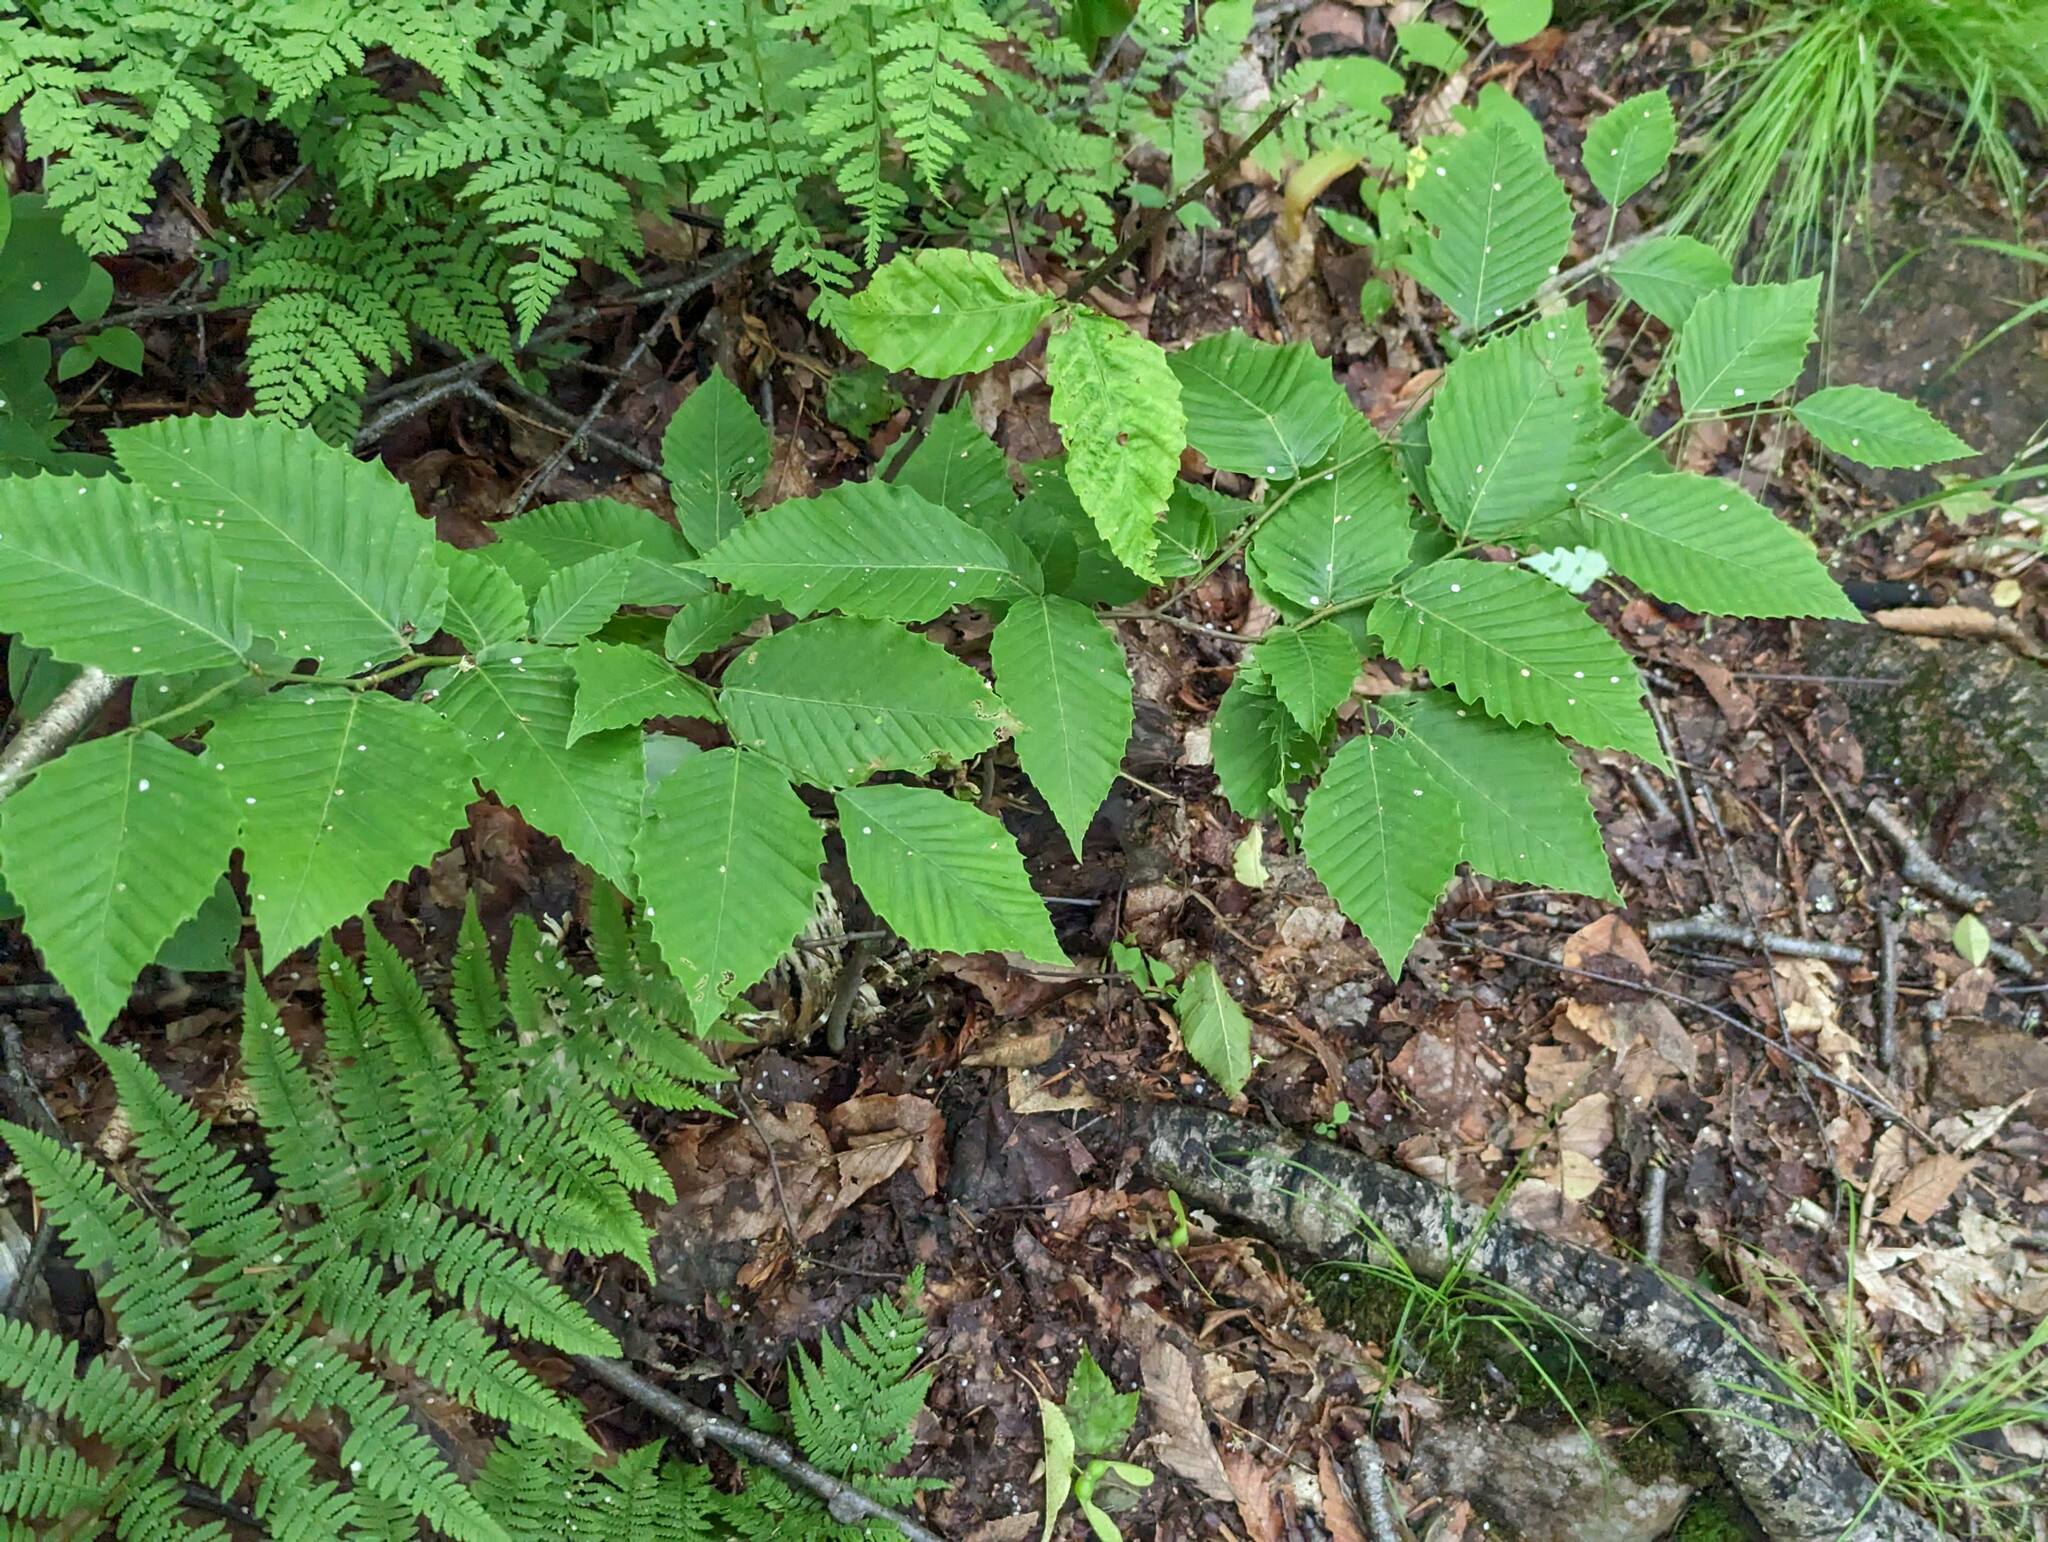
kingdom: Plantae
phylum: Tracheophyta
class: Magnoliopsida
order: Fagales
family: Fagaceae
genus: Fagus
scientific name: Fagus grandifolia
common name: American beech
